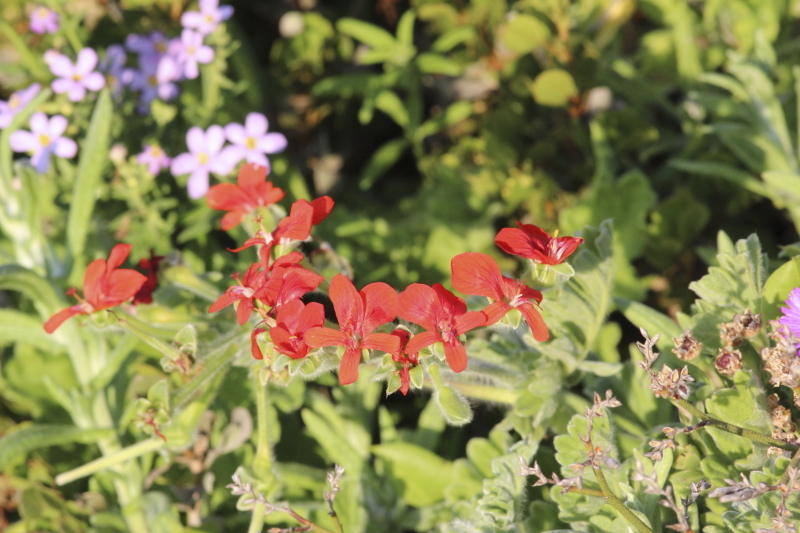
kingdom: Plantae
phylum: Tracheophyta
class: Magnoliopsida
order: Geraniales
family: Geraniaceae
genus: Pelargonium
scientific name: Pelargonium fulgidum
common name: Celandine-leaf pelargonium
